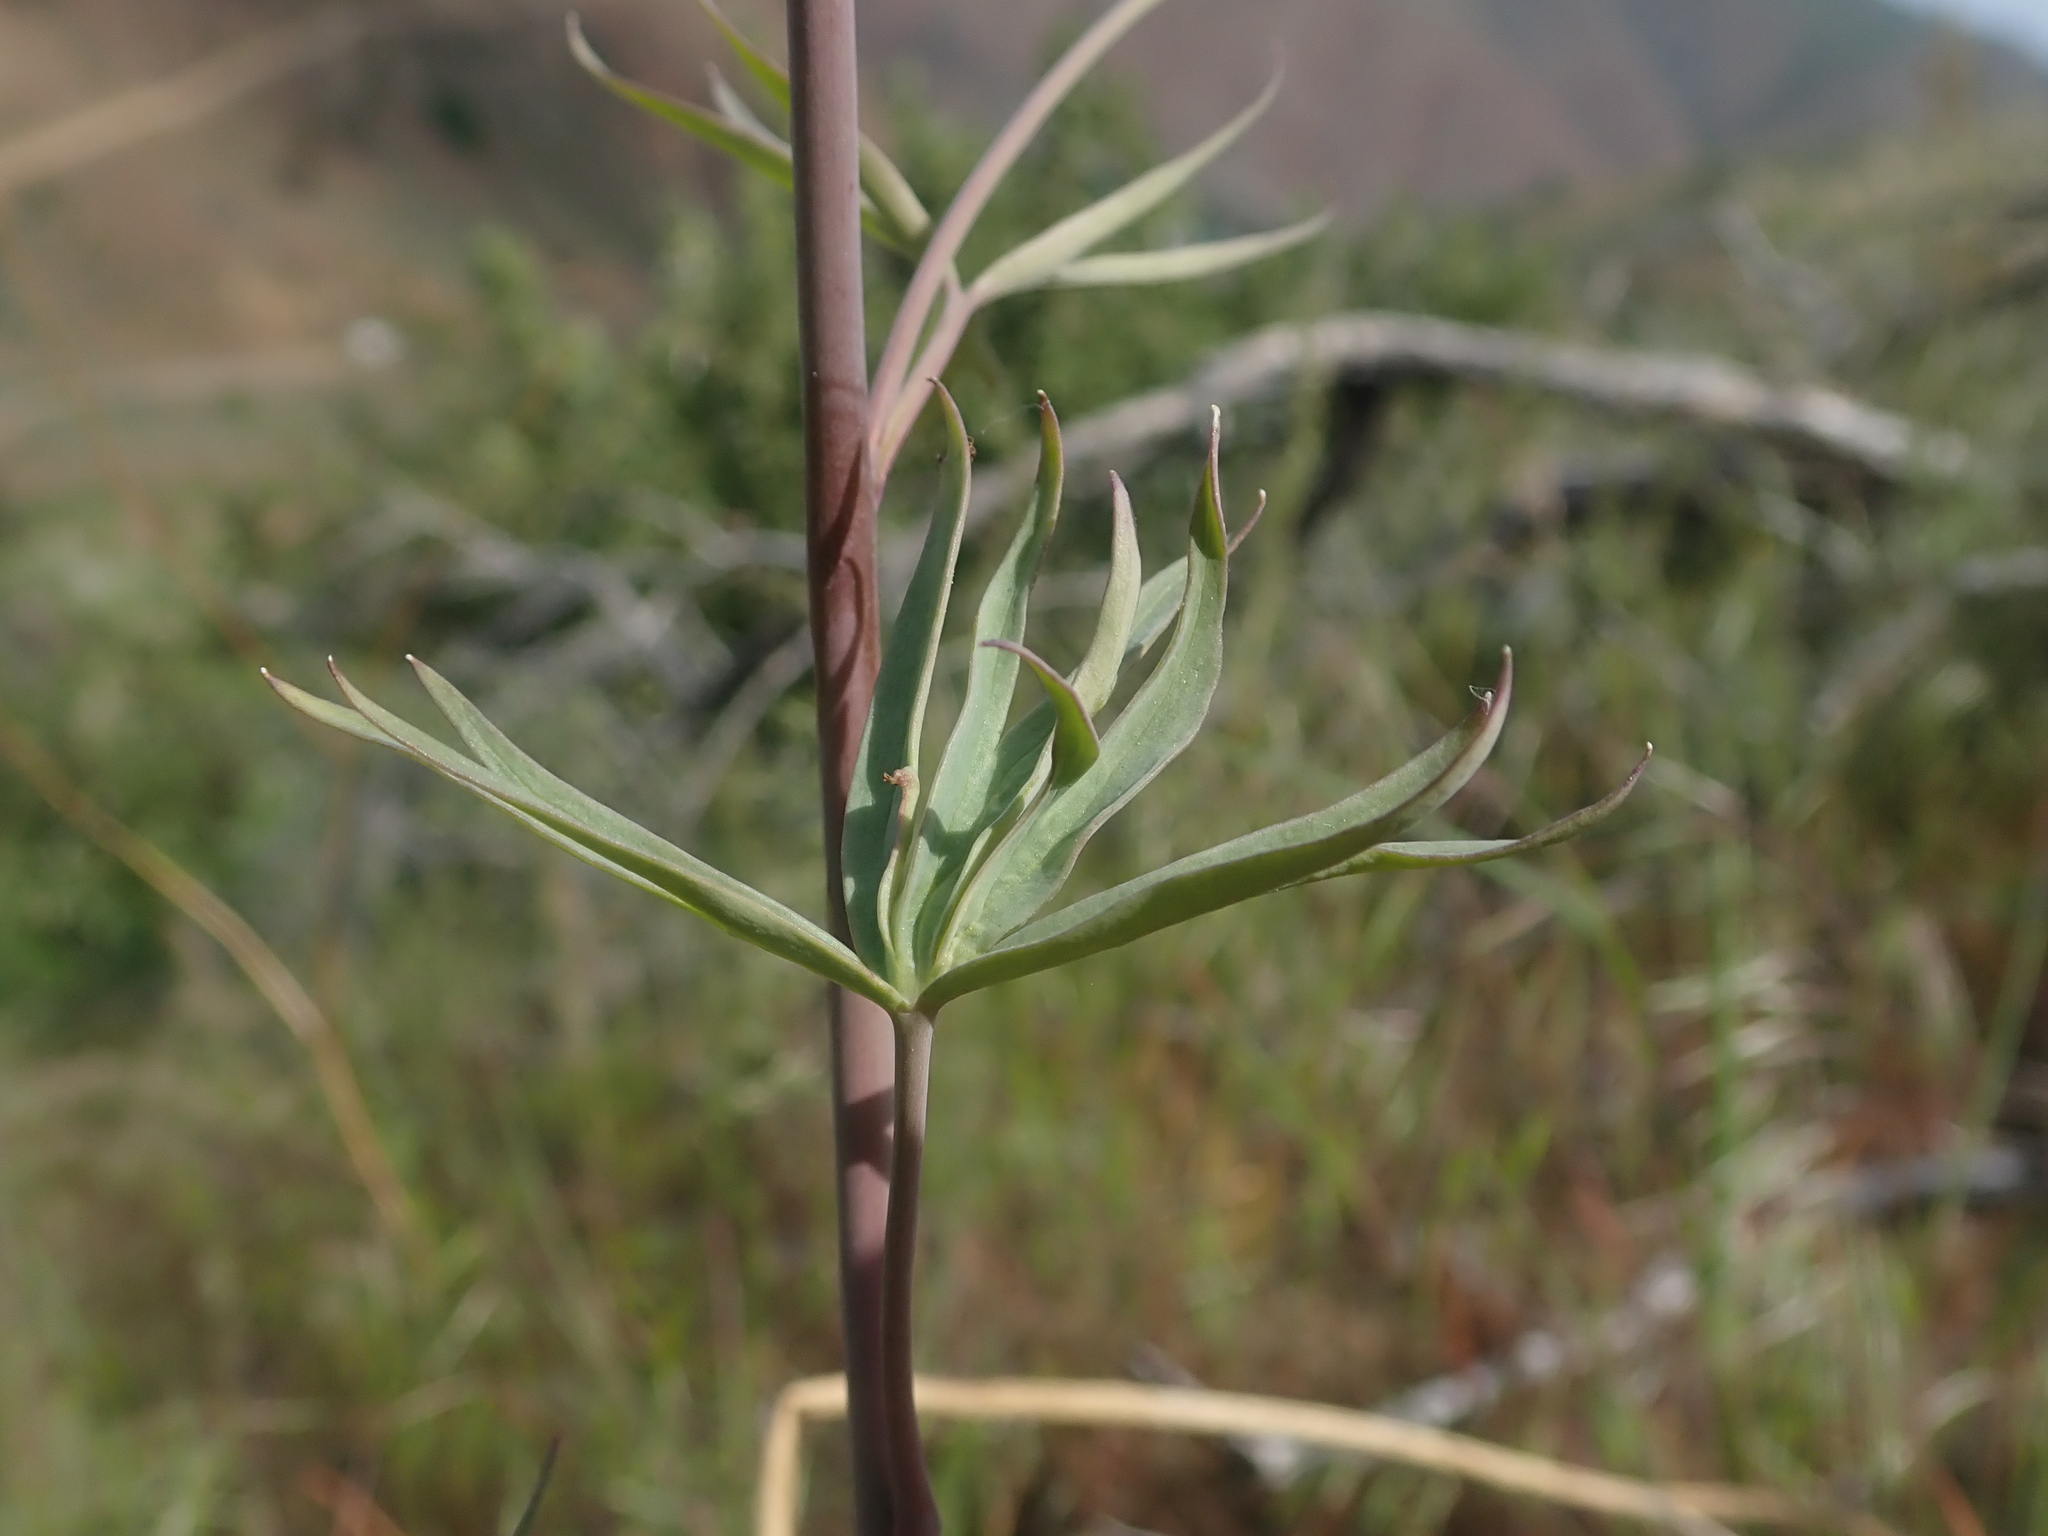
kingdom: Plantae
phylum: Tracheophyta
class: Magnoliopsida
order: Ranunculales
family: Ranunculaceae
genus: Delphinium
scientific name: Delphinium xantholeucum
